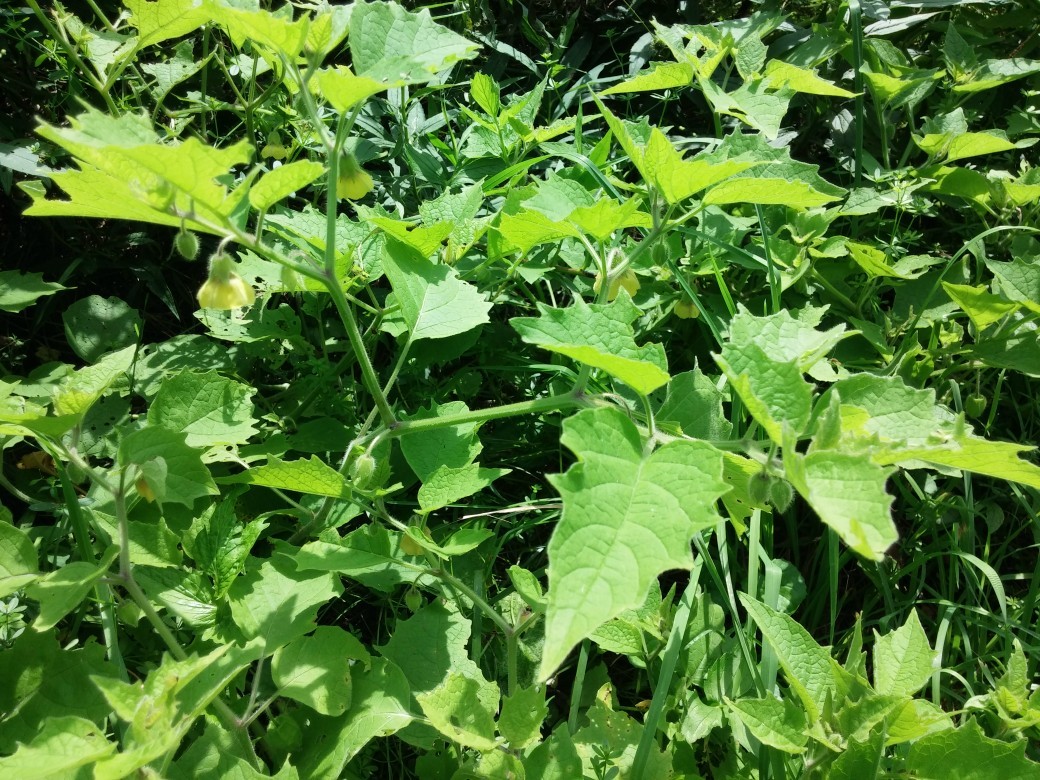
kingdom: Plantae
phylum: Tracheophyta
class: Magnoliopsida
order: Solanales
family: Solanaceae
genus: Physalis
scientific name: Physalis heterophylla
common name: Clammy ground-cherry
